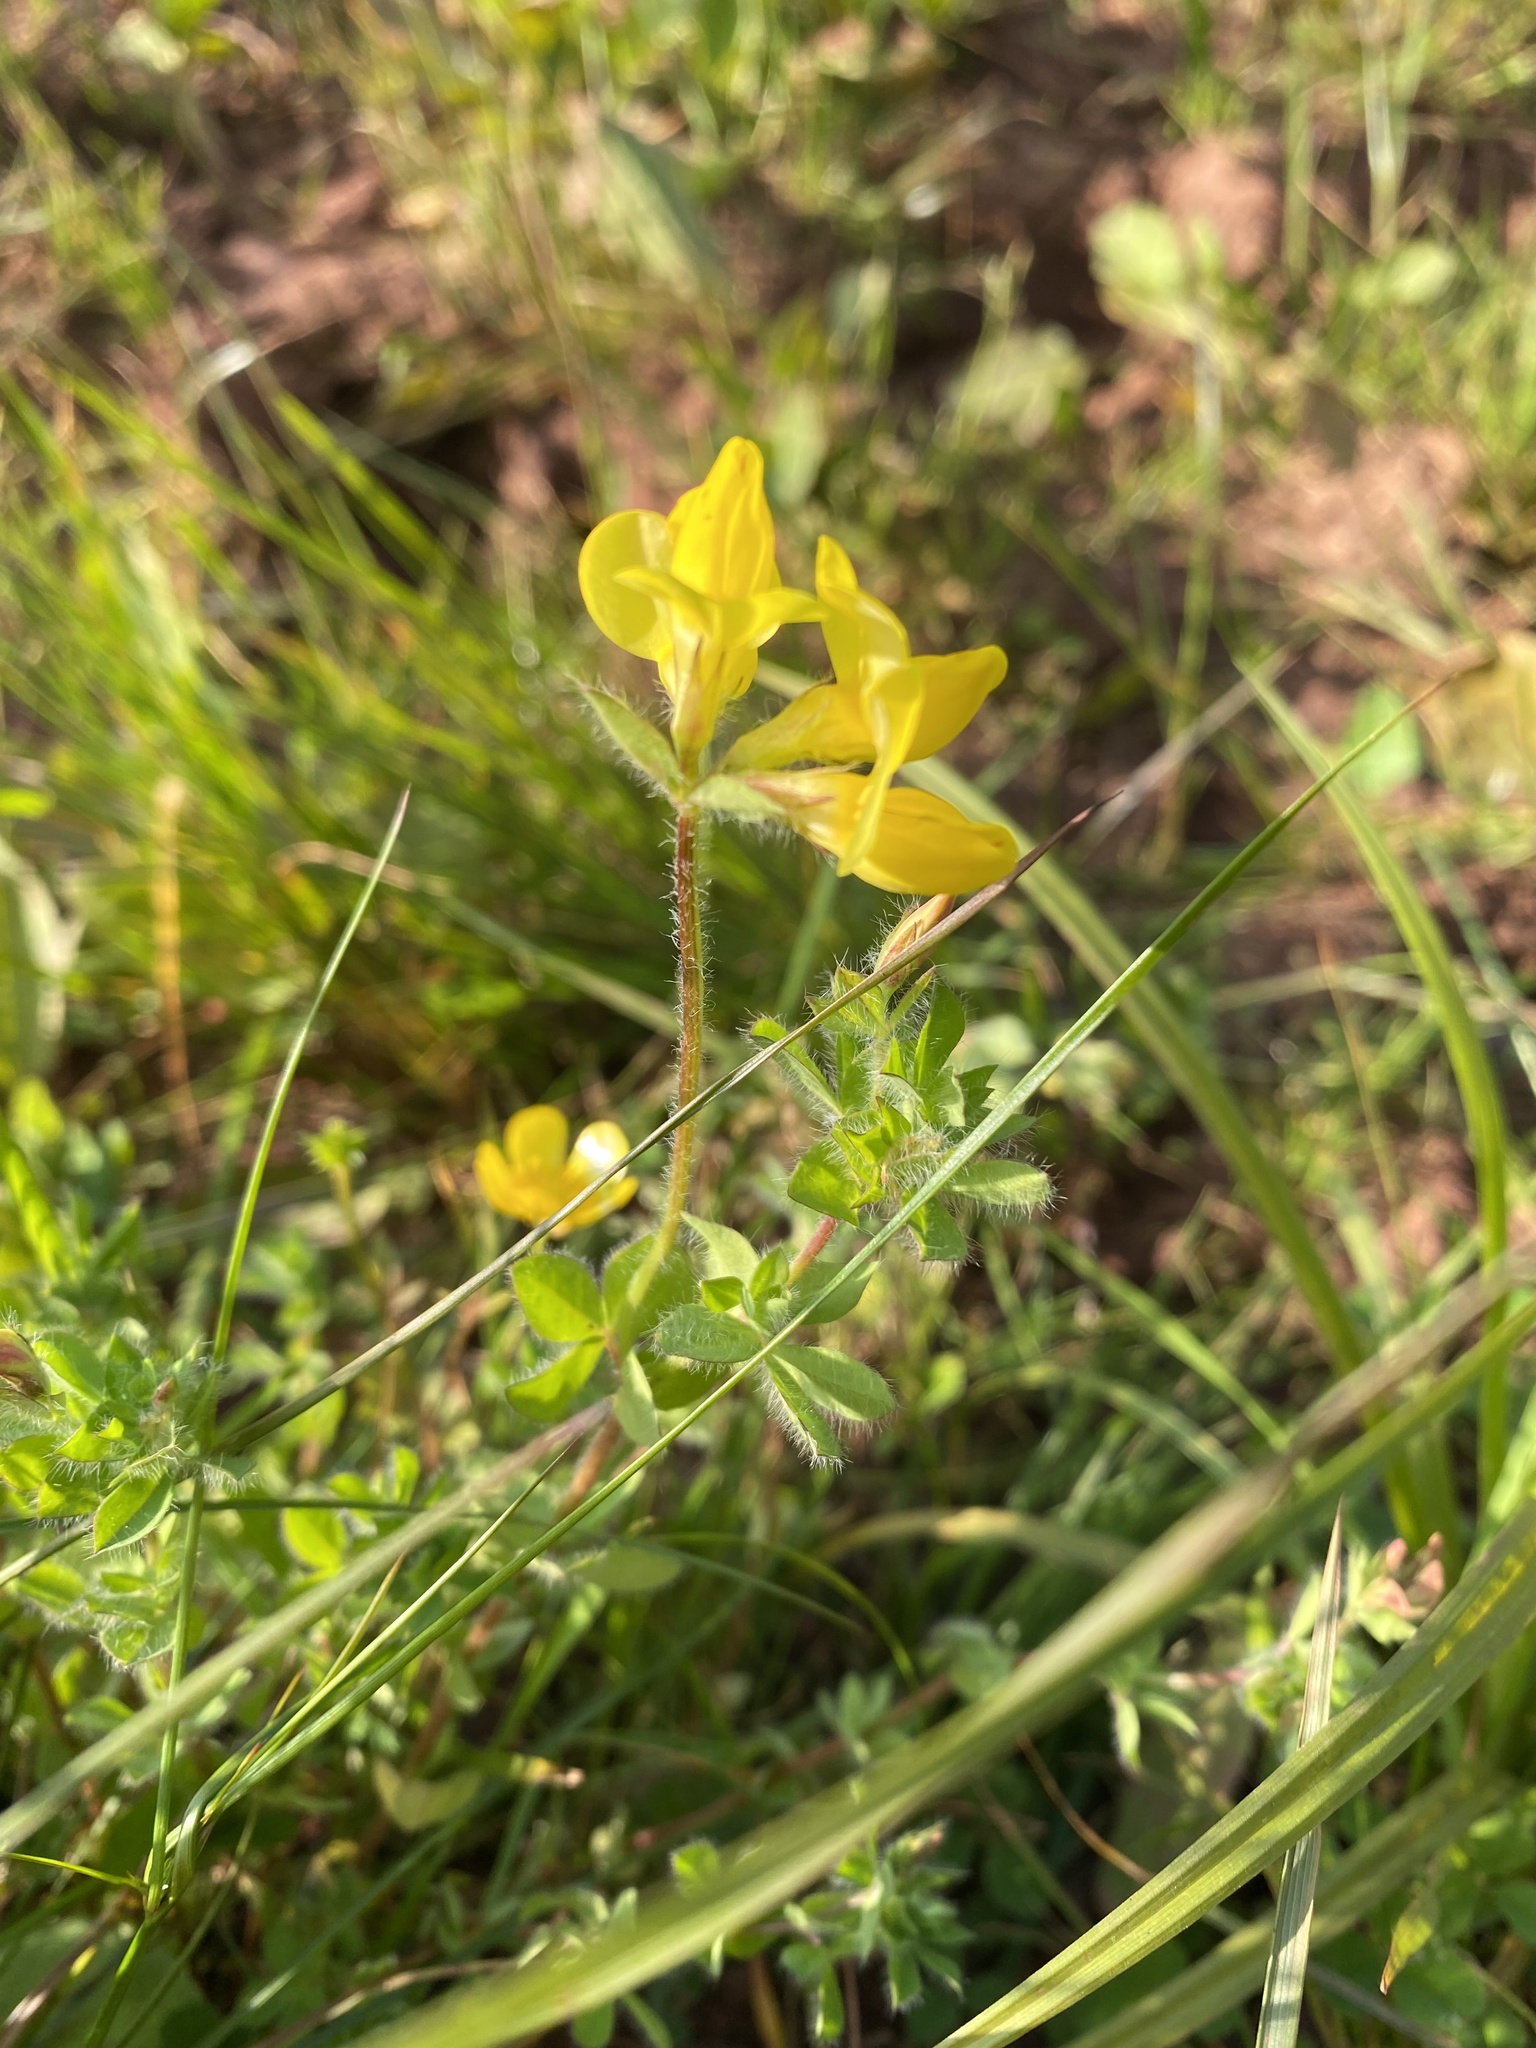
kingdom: Plantae
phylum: Tracheophyta
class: Magnoliopsida
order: Fabales
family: Fabaceae
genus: Lotus
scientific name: Lotus corniculatus
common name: Common bird's-foot-trefoil
